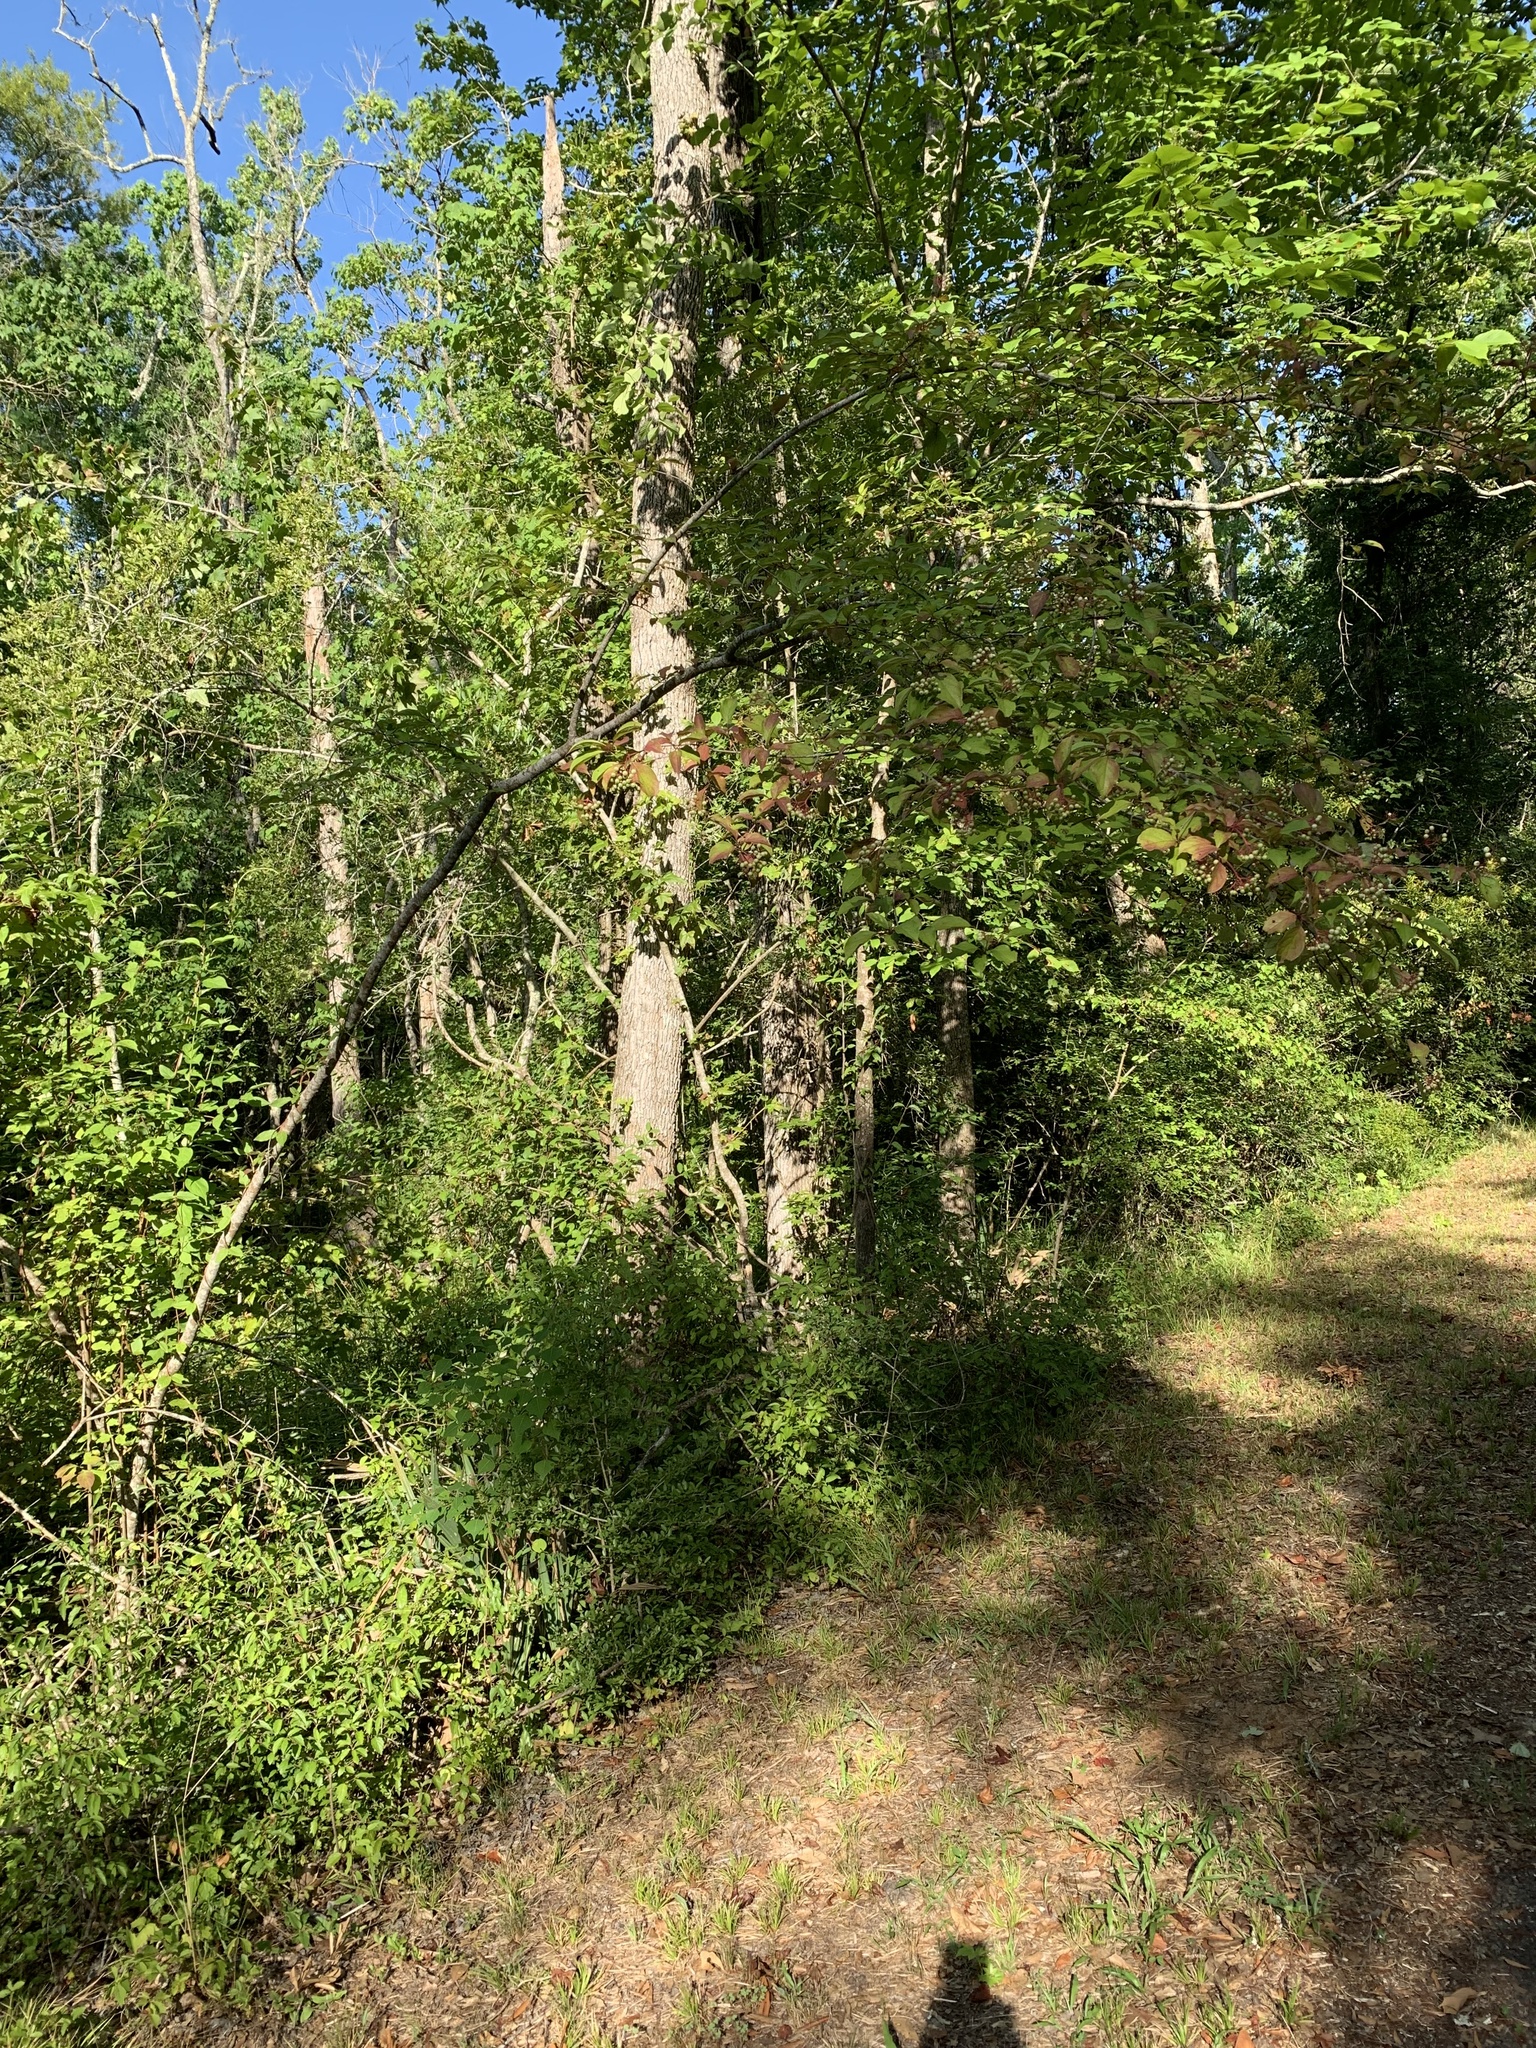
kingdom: Plantae
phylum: Tracheophyta
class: Magnoliopsida
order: Cornales
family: Cornaceae
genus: Cornus
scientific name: Cornus foemina
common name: Swamp dogwood
